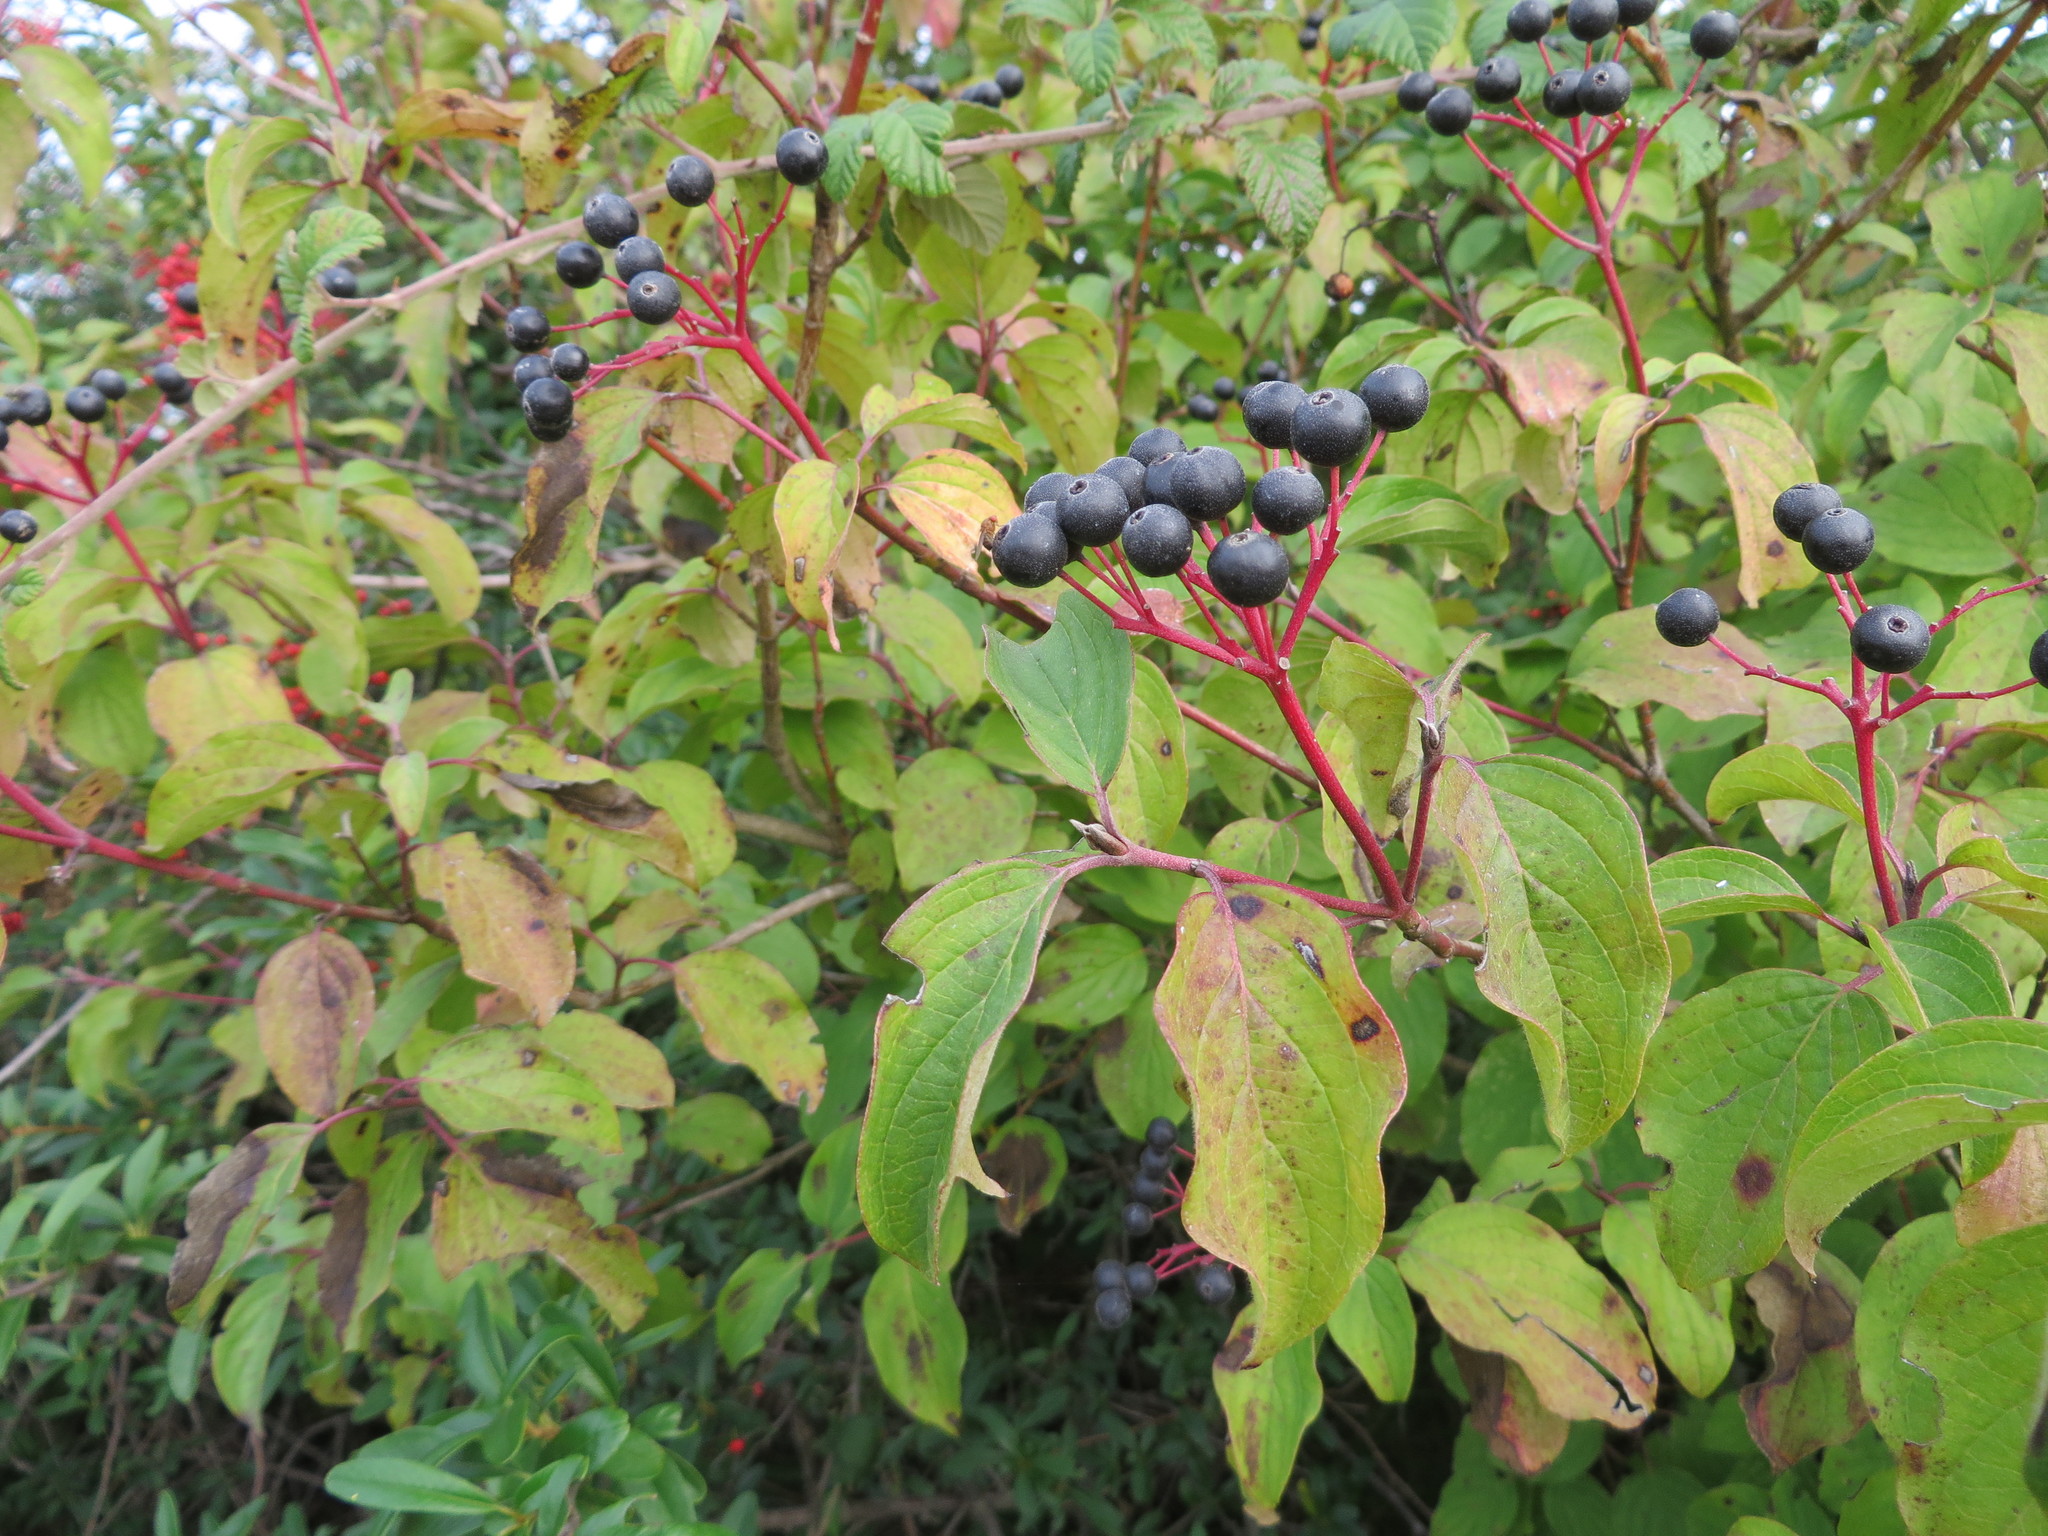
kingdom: Plantae
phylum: Tracheophyta
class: Magnoliopsida
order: Cornales
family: Cornaceae
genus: Cornus
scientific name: Cornus sanguinea
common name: Dogwood
